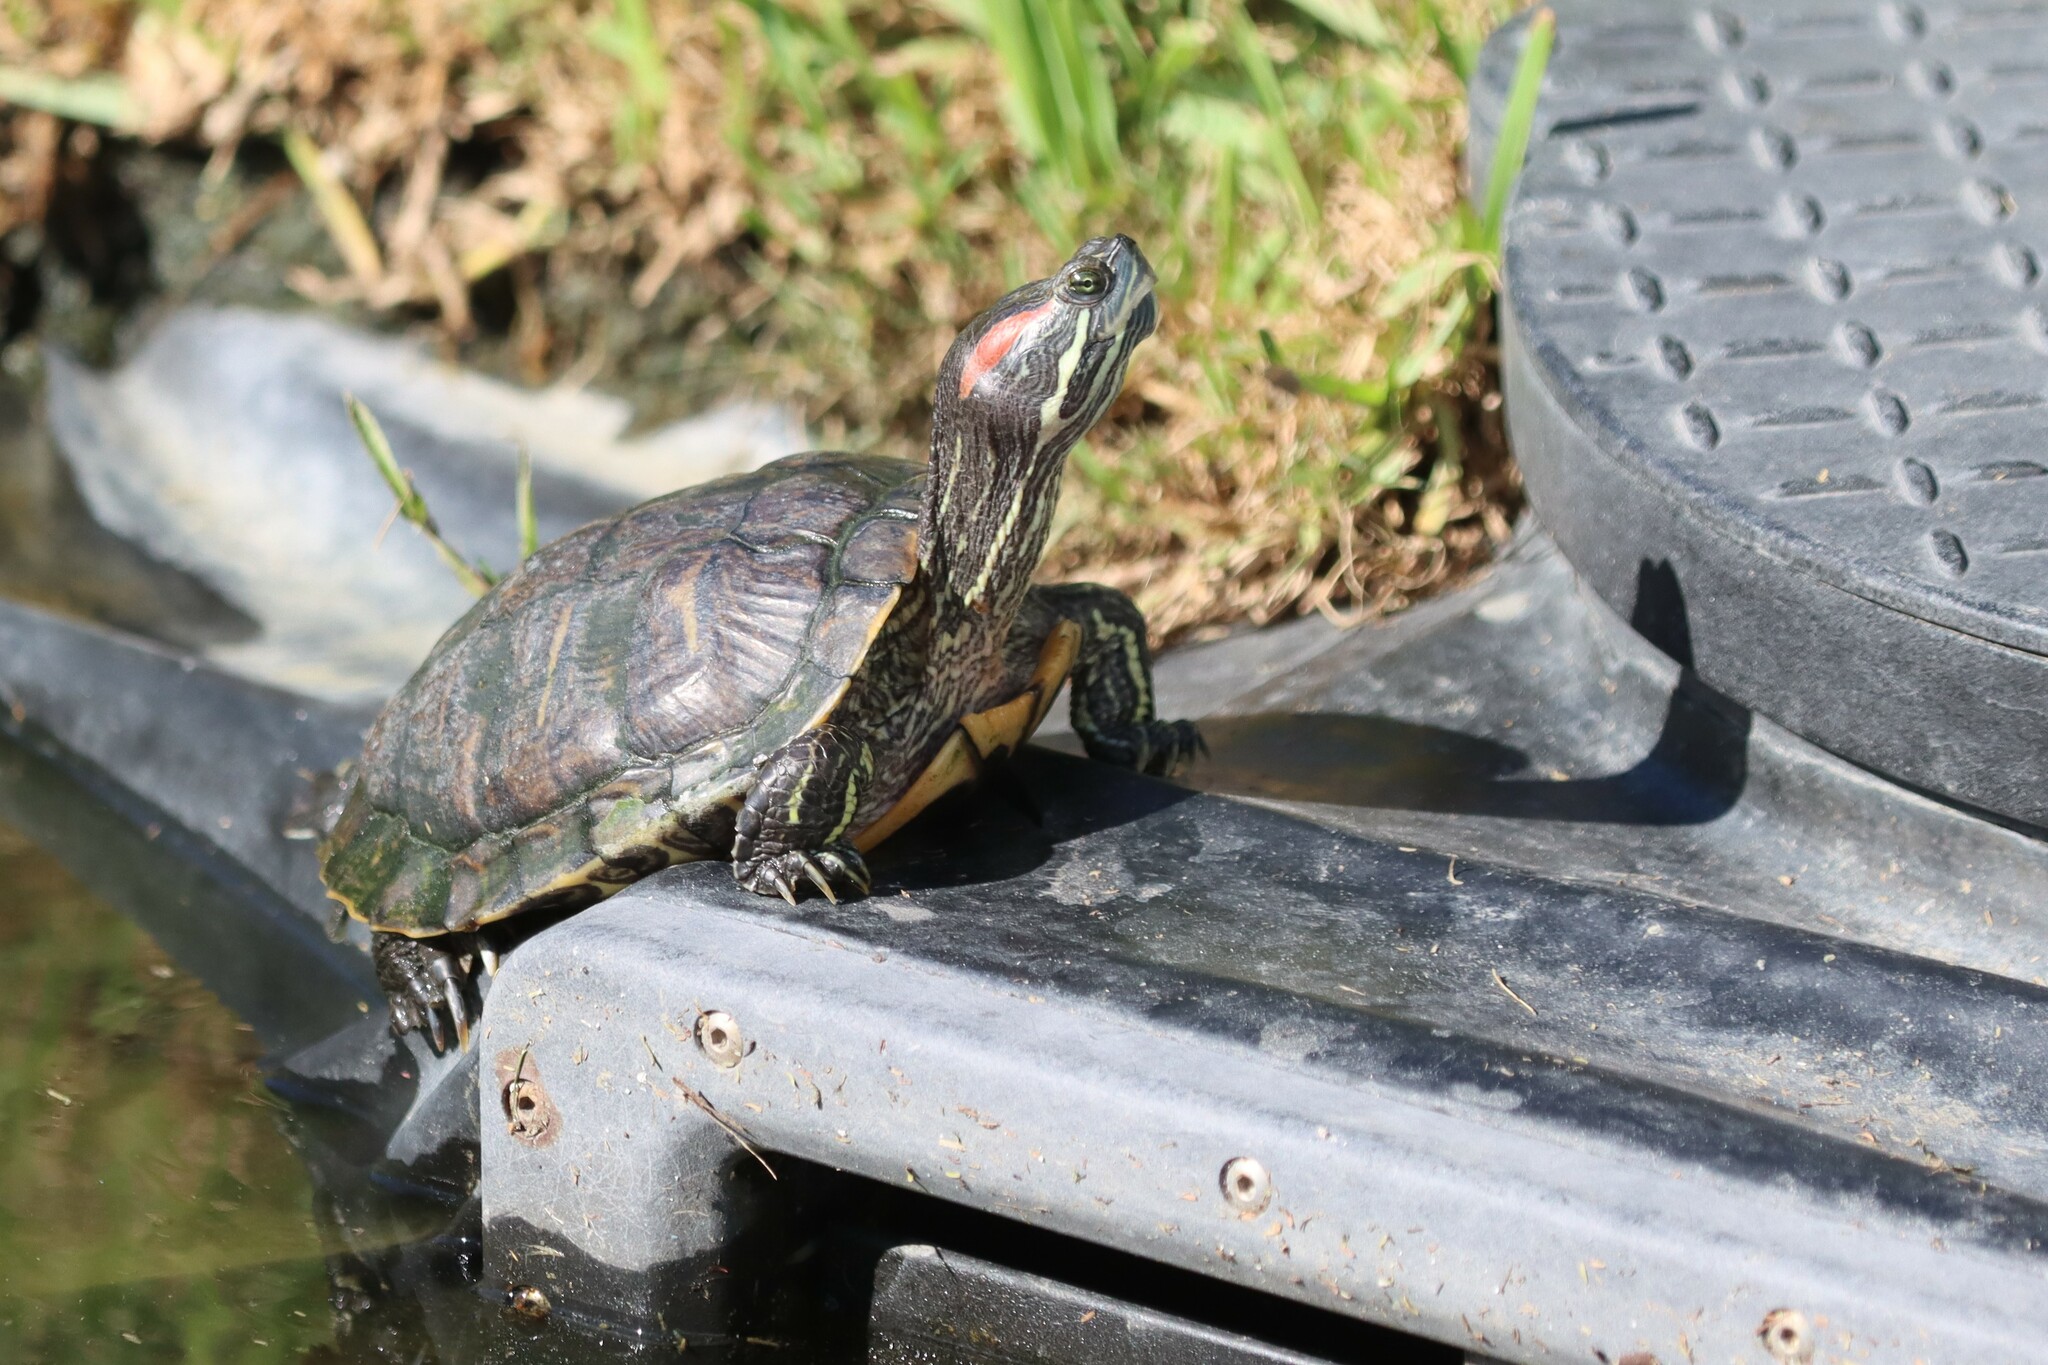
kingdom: Animalia
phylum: Chordata
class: Testudines
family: Emydidae
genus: Trachemys
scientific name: Trachemys scripta
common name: Slider
